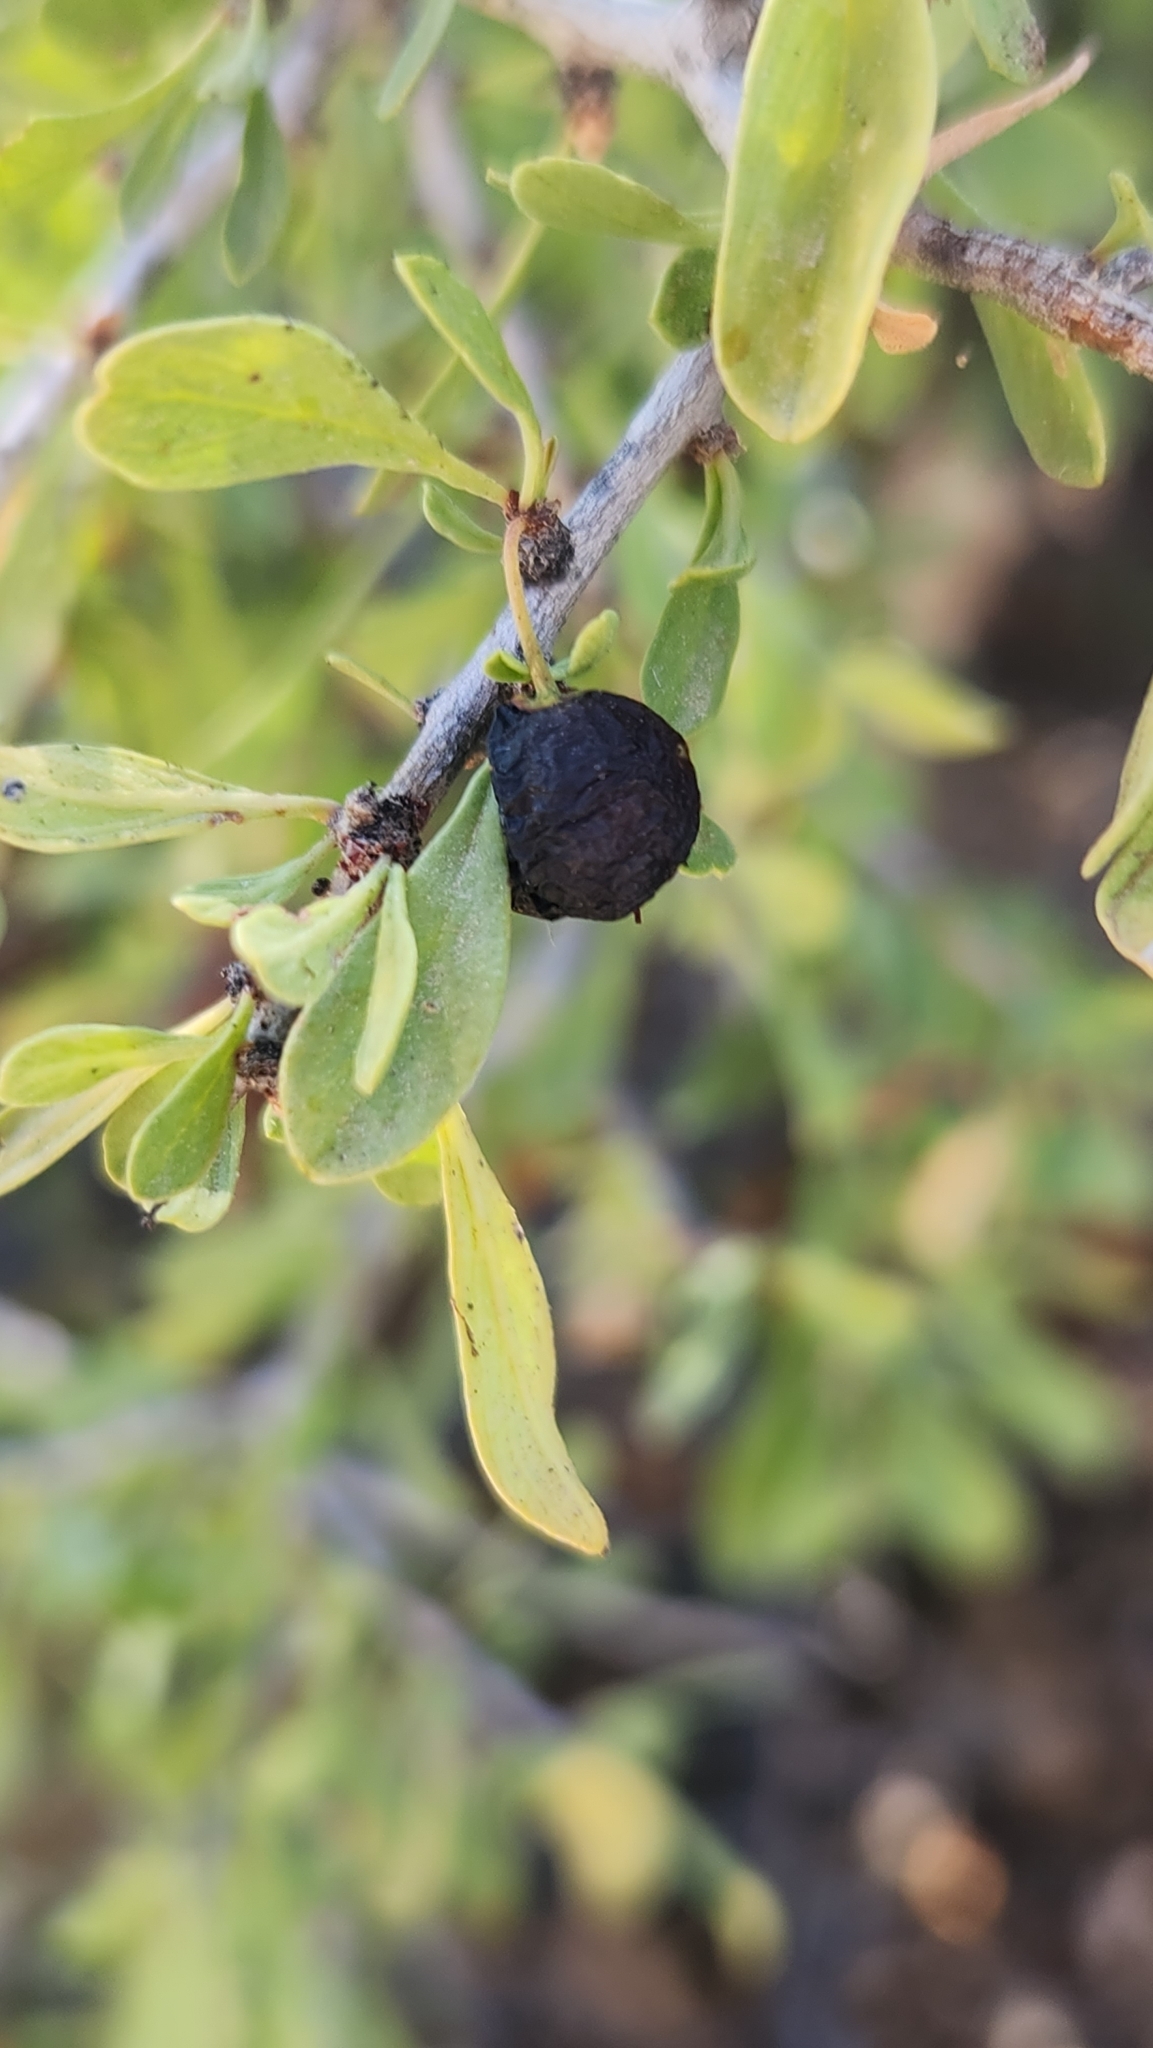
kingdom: Plantae
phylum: Tracheophyta
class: Magnoliopsida
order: Rosales
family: Rhamnaceae
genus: Condalia
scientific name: Condalia globosa
